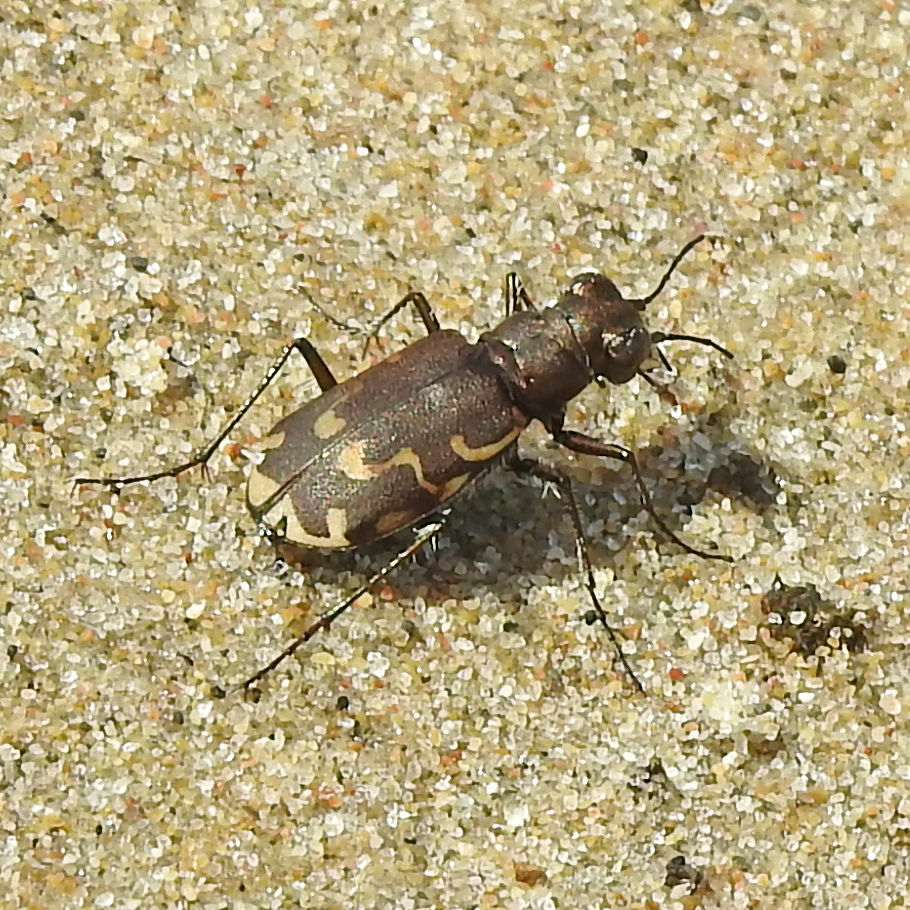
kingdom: Animalia
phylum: Arthropoda
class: Insecta
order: Coleoptera
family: Carabidae
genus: Cicindela
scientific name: Cicindela repanda
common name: Bronzed tiger beetle
